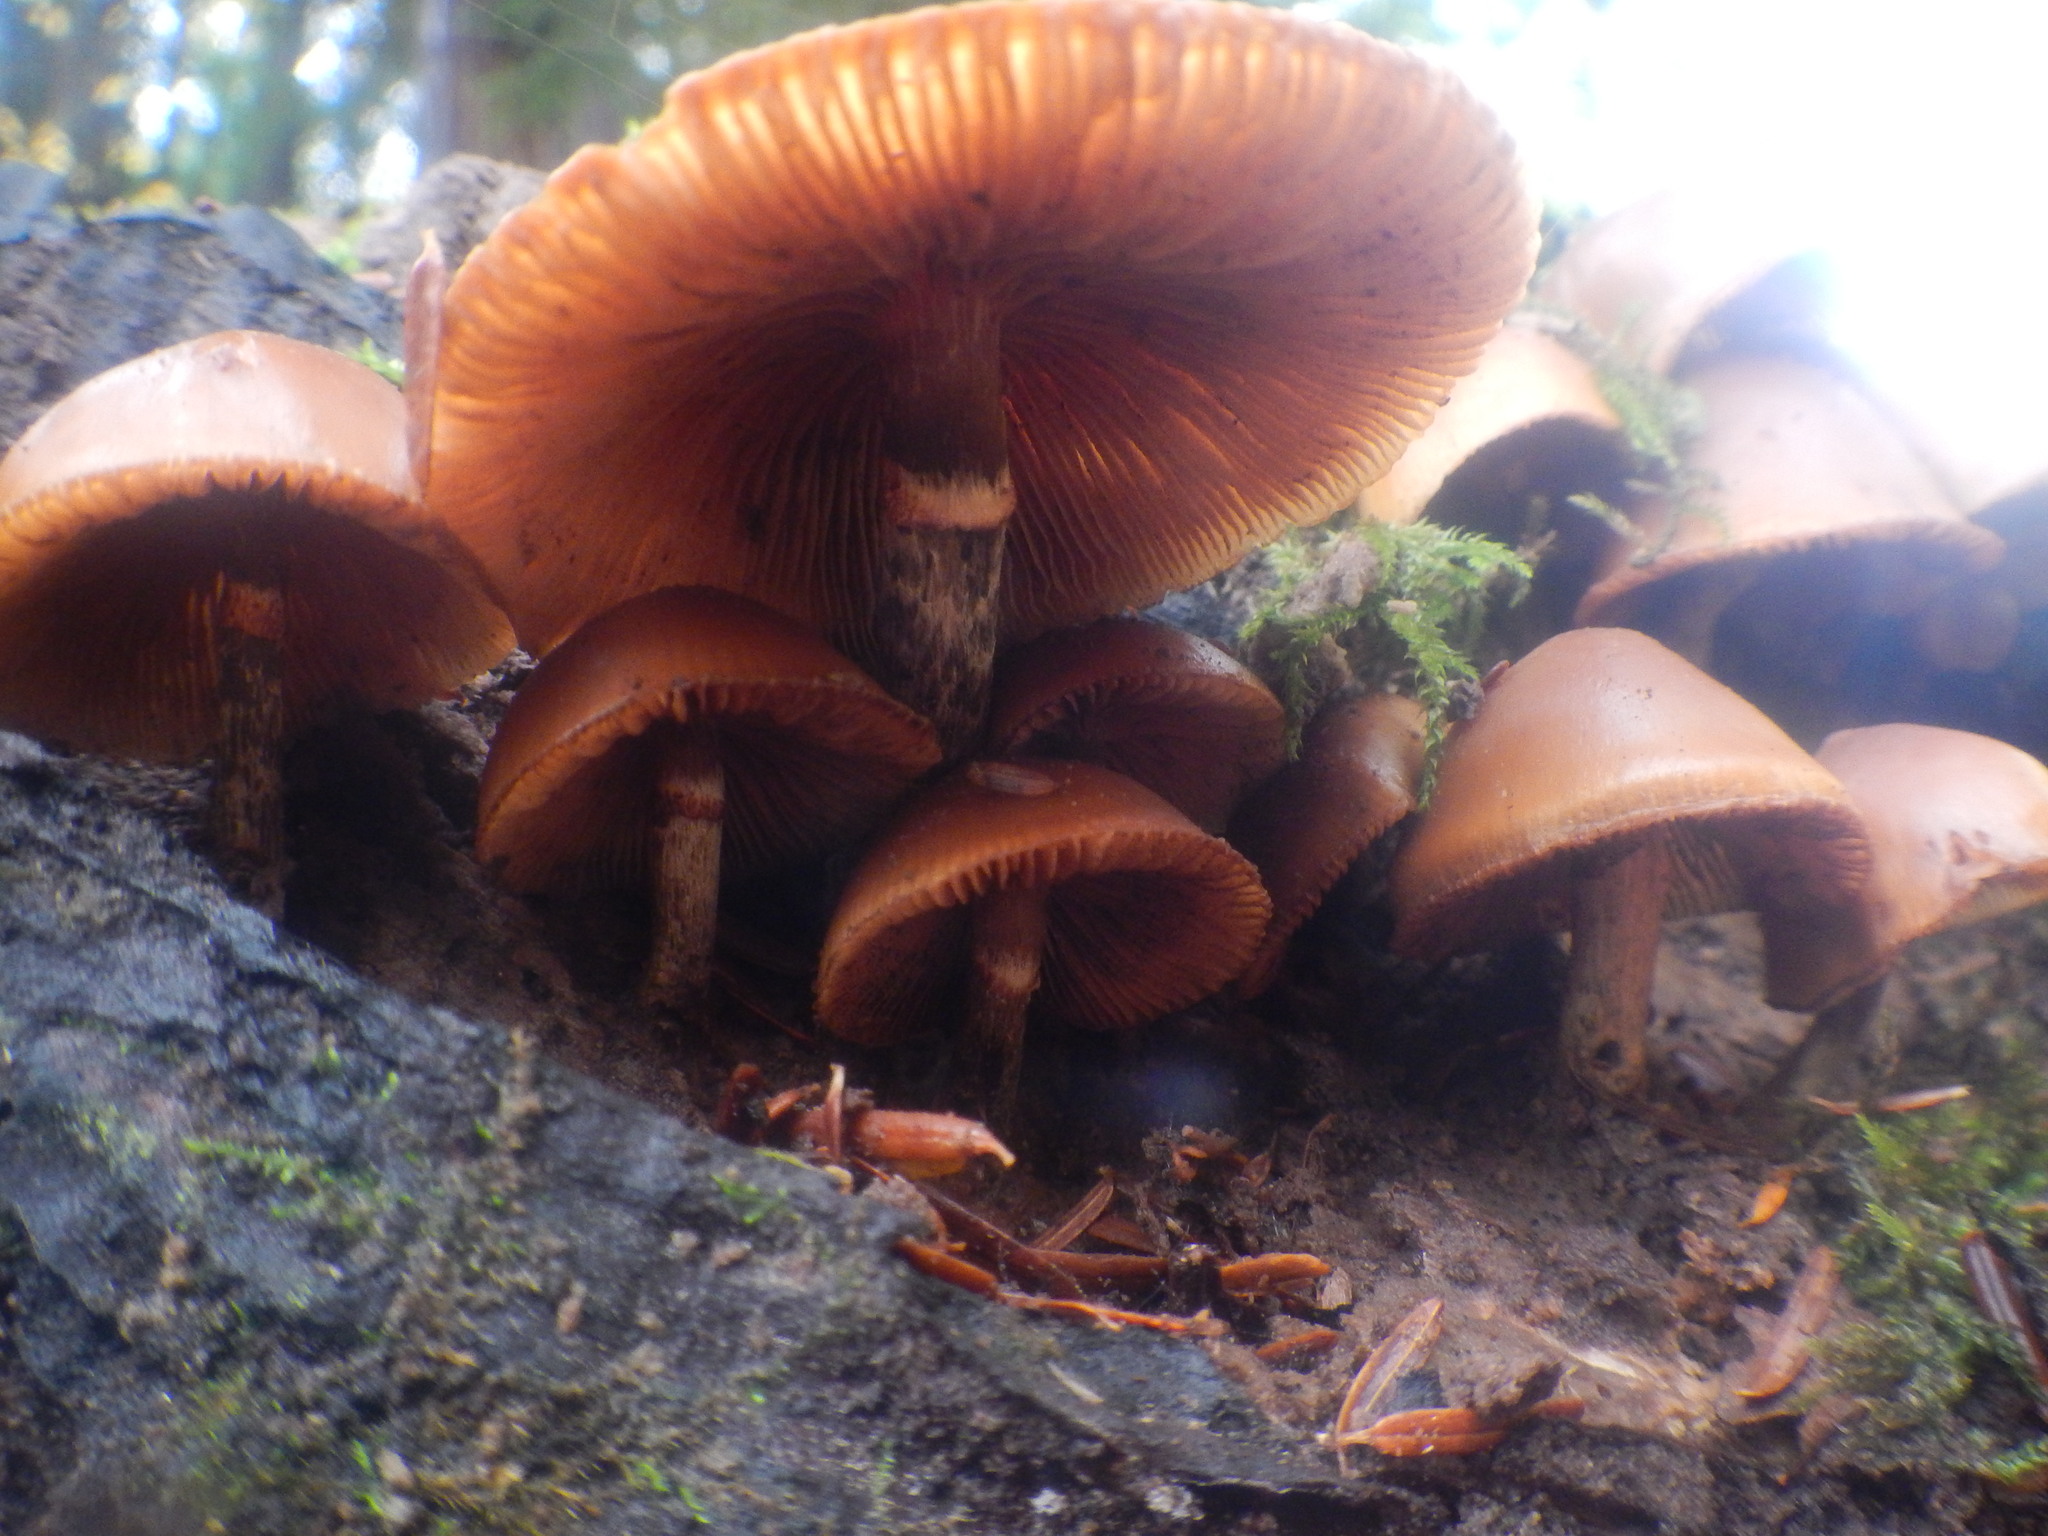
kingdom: Fungi
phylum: Basidiomycota
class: Agaricomycetes
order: Agaricales
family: Hymenogastraceae
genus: Galerina
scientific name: Galerina marginata
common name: Funeral bell
